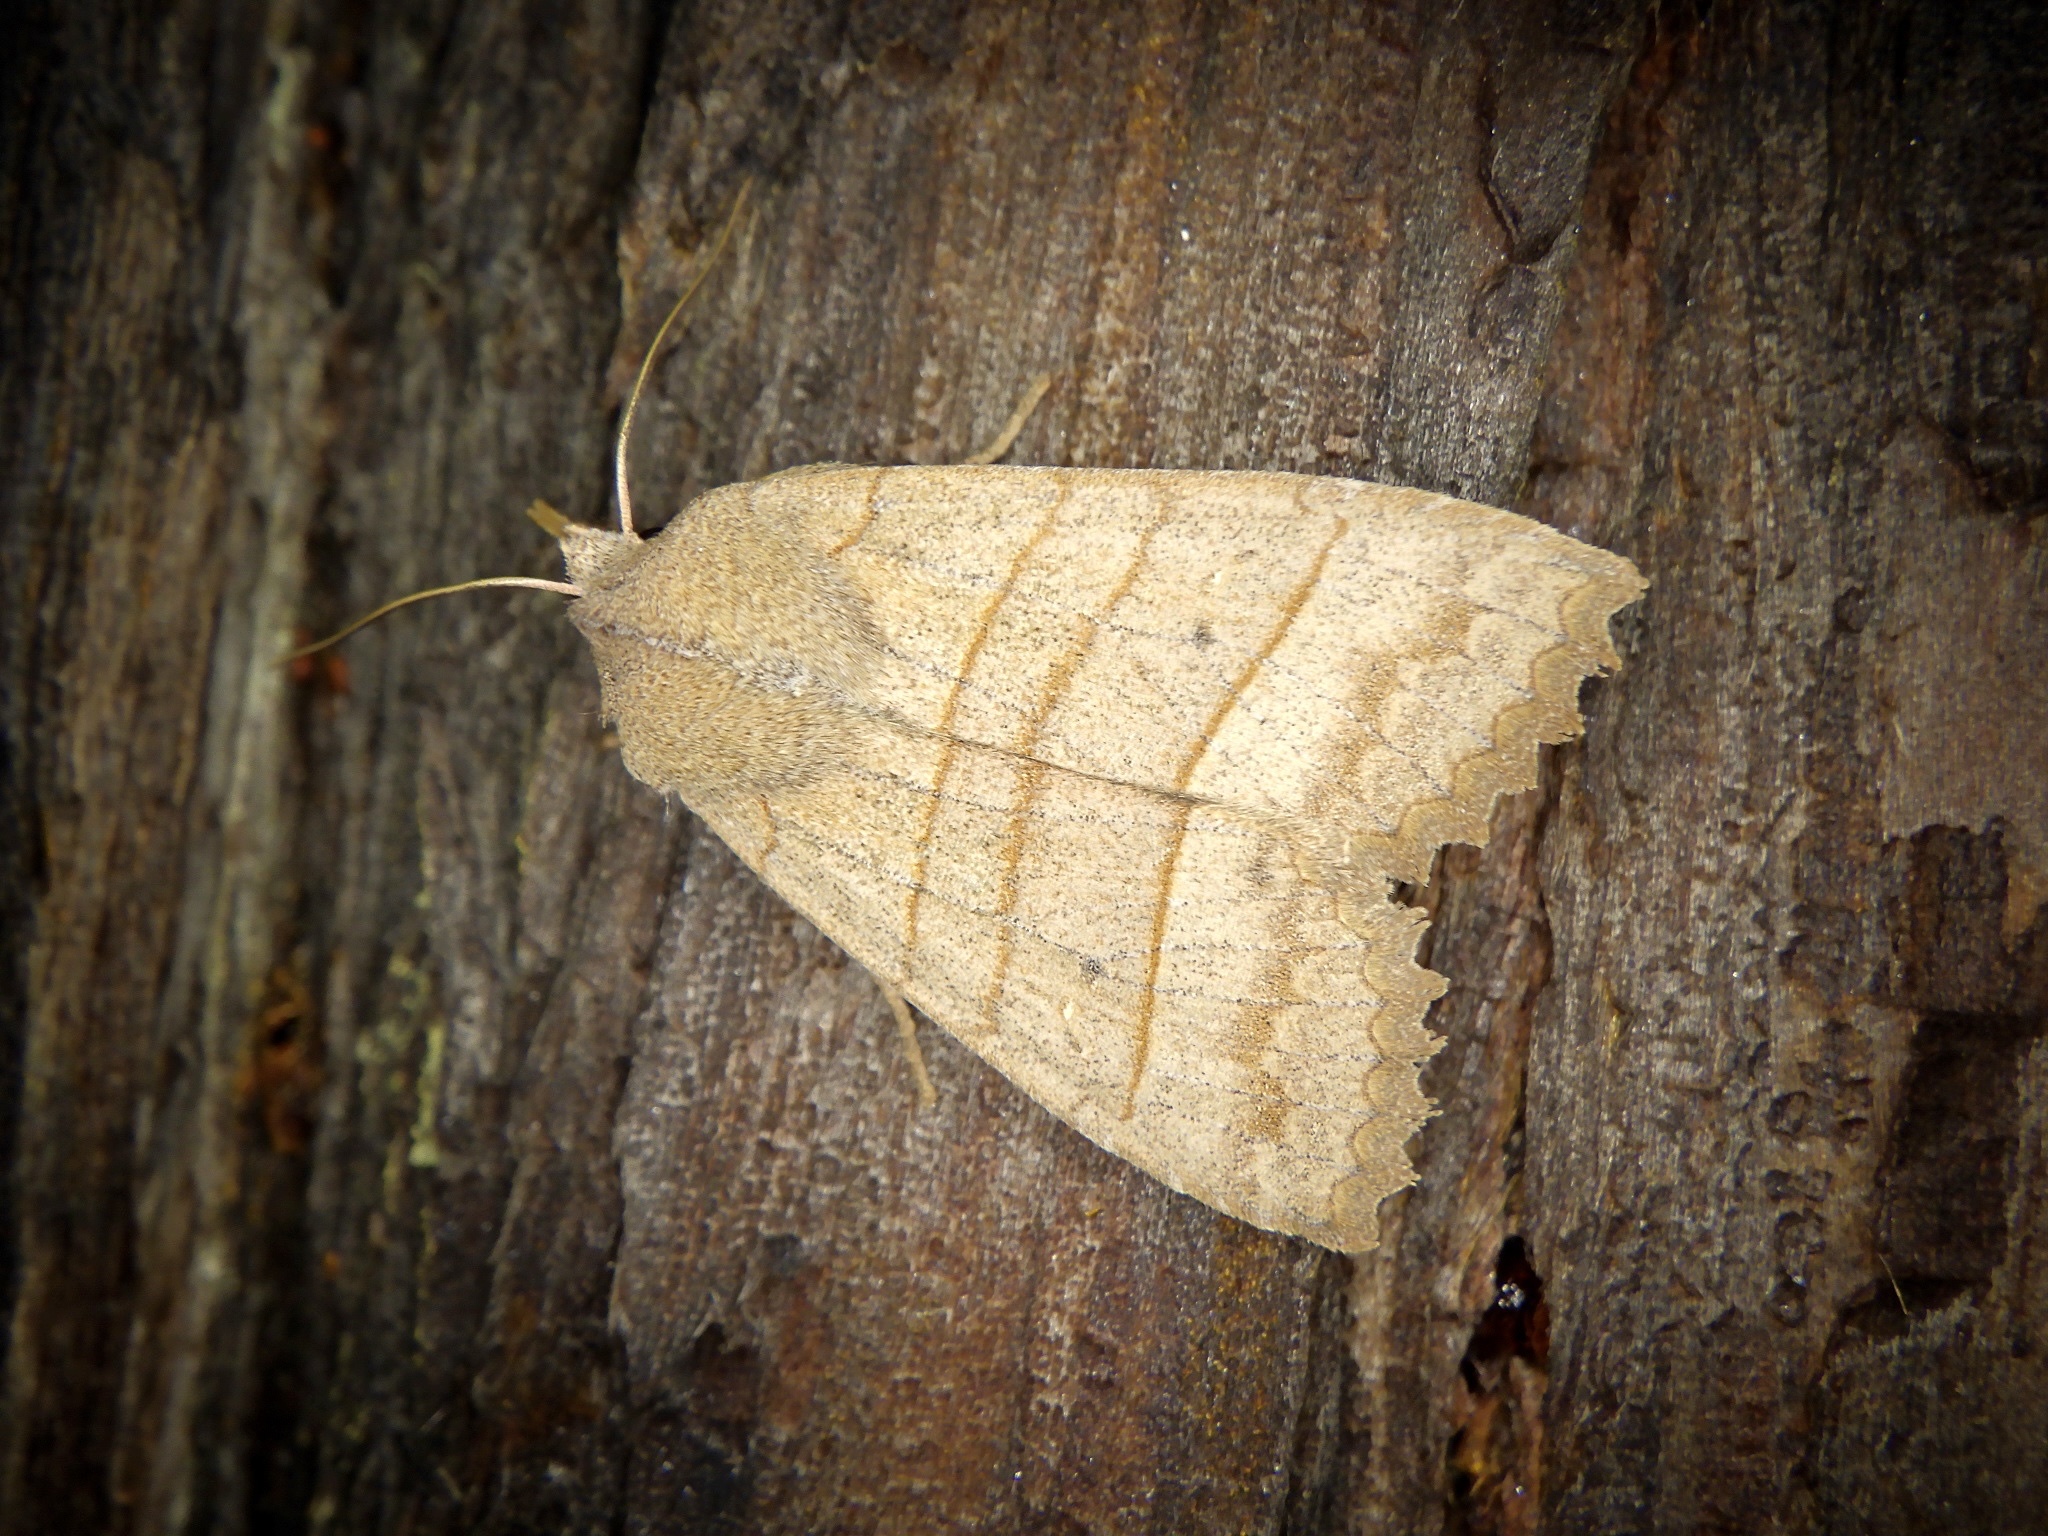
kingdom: Animalia
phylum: Arthropoda
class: Insecta
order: Lepidoptera
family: Noctuidae
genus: Eupsilia
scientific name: Eupsilia quadrilinea
